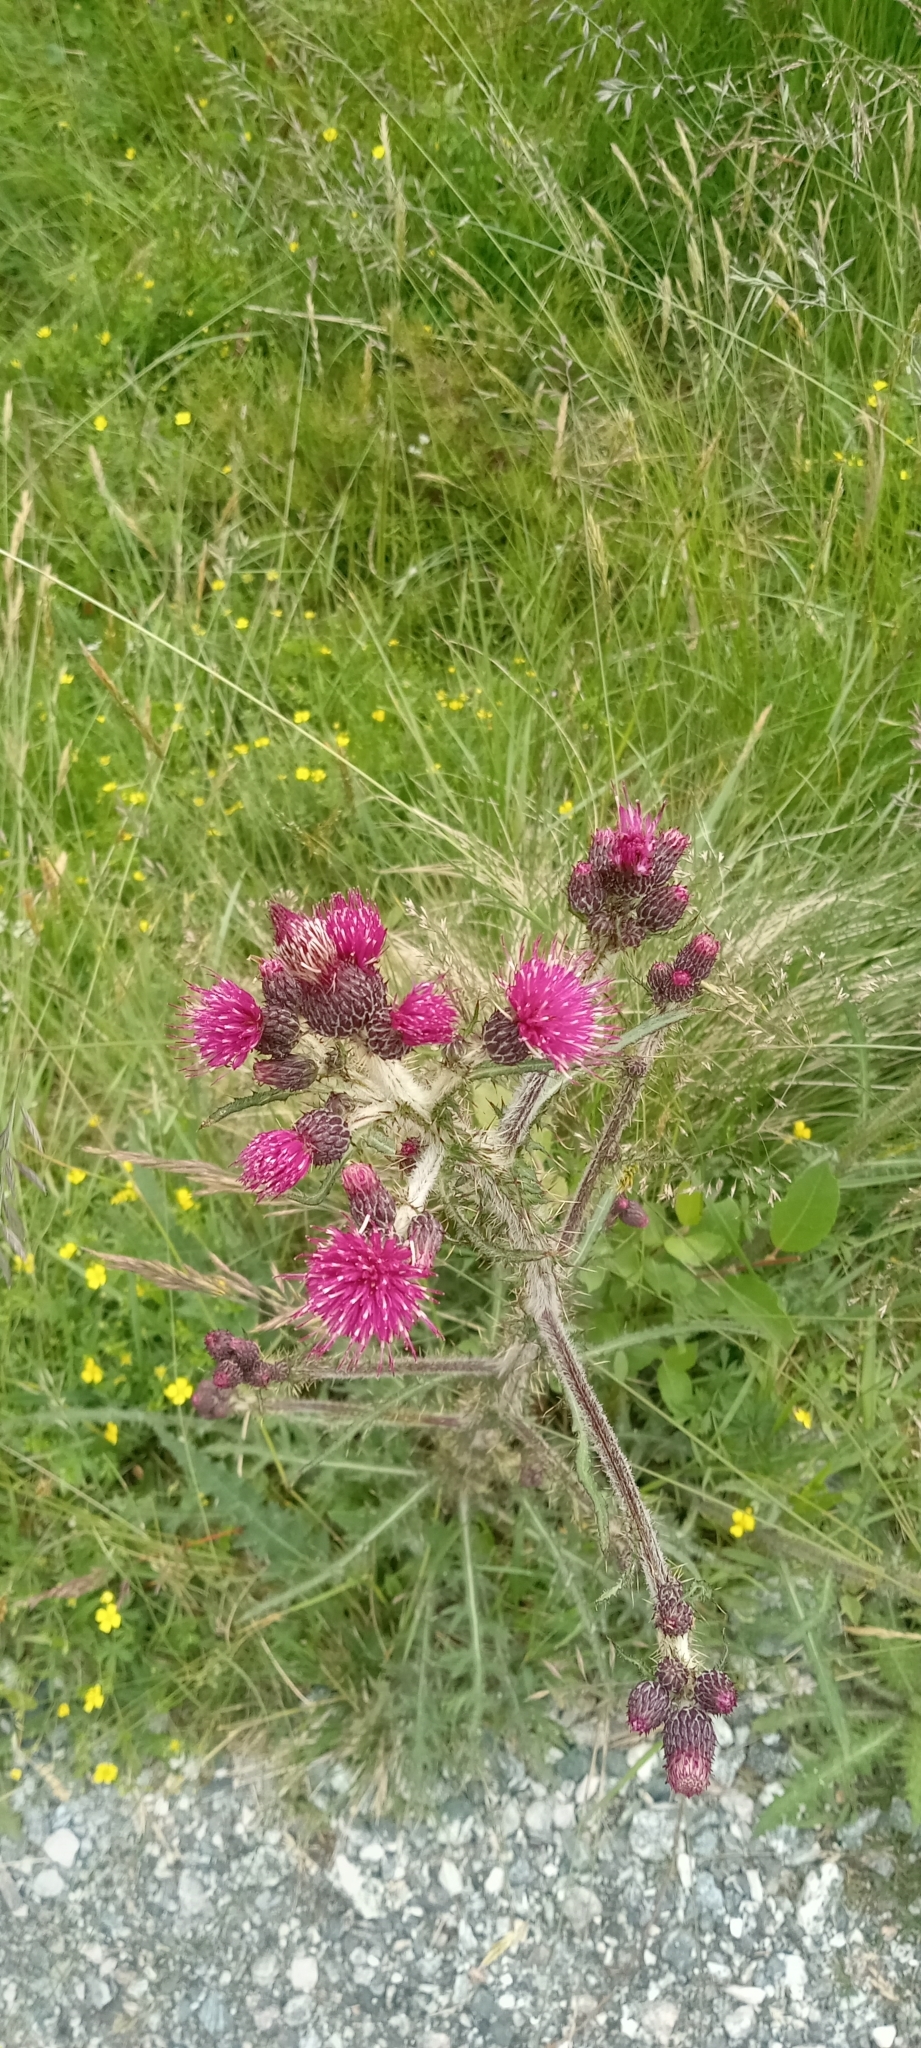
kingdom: Plantae
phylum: Tracheophyta
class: Magnoliopsida
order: Asterales
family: Asteraceae
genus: Cirsium
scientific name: Cirsium palustre
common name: Marsh thistle
